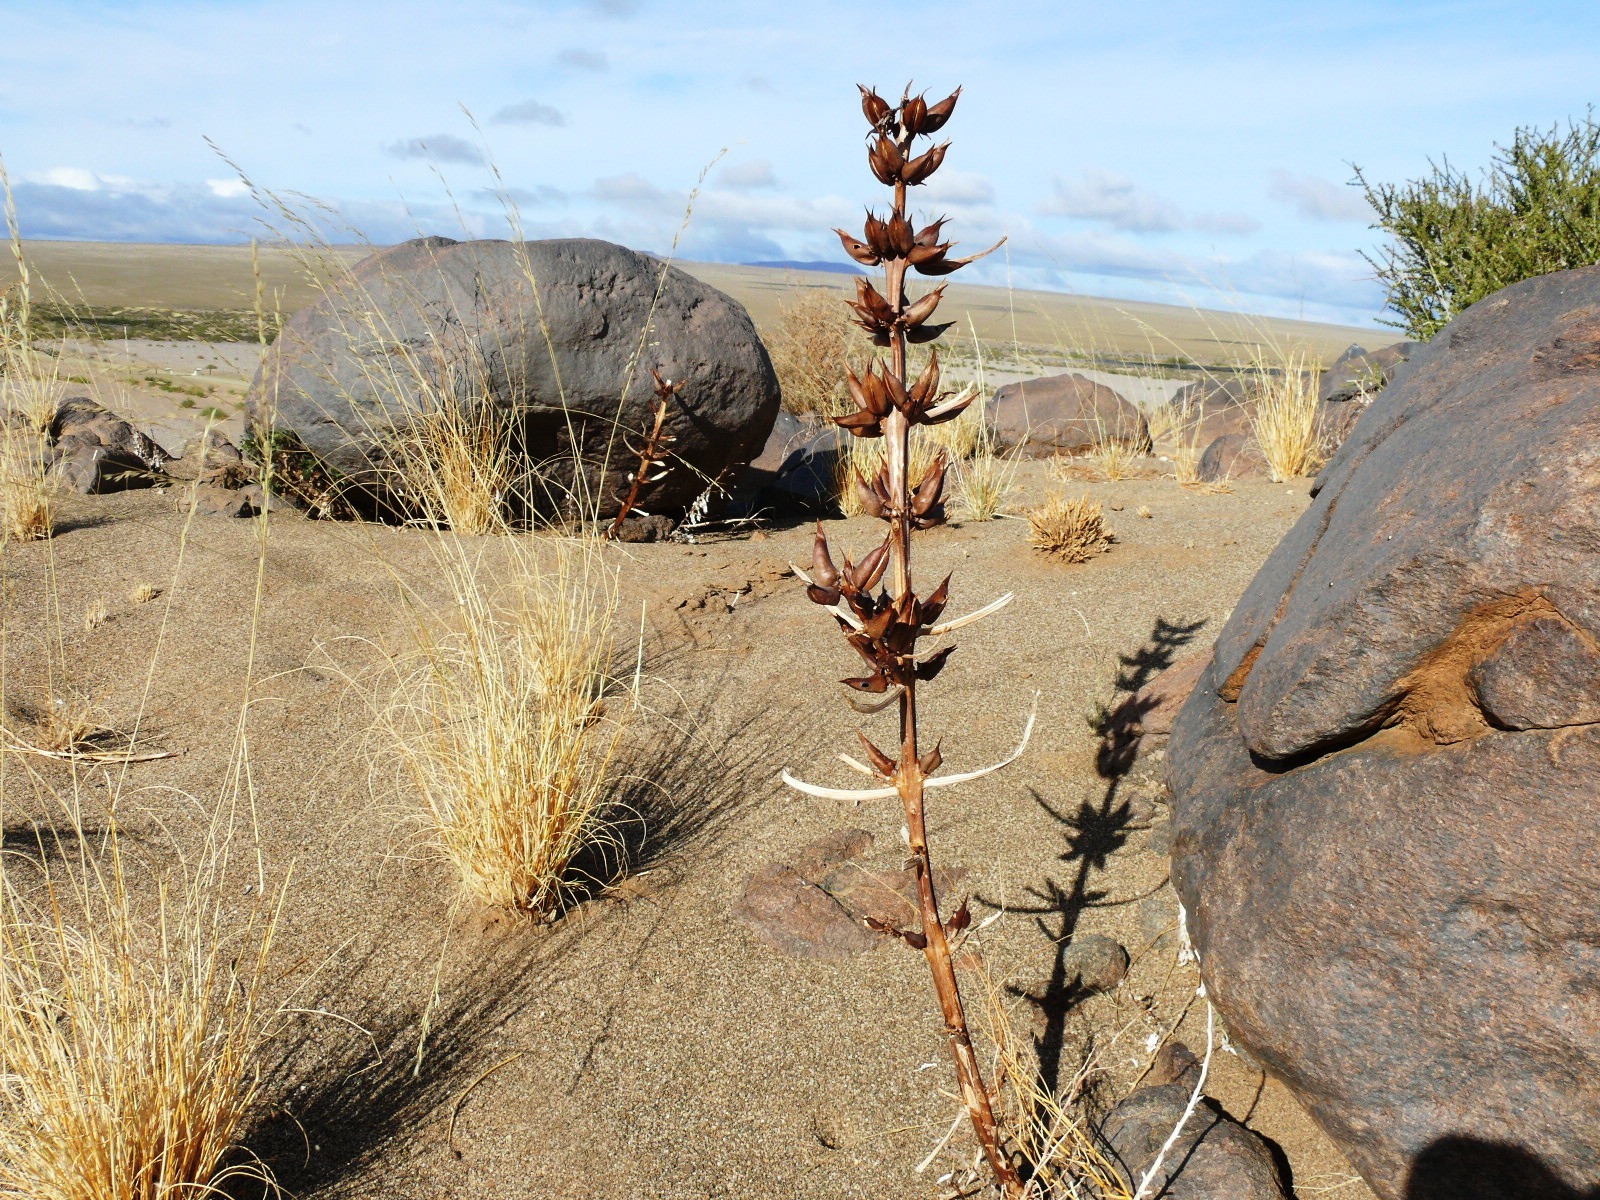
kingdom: Plantae
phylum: Tracheophyta
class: Magnoliopsida
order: Lamiales
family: Pedaliaceae
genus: Rogeria
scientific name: Rogeria longiflora
